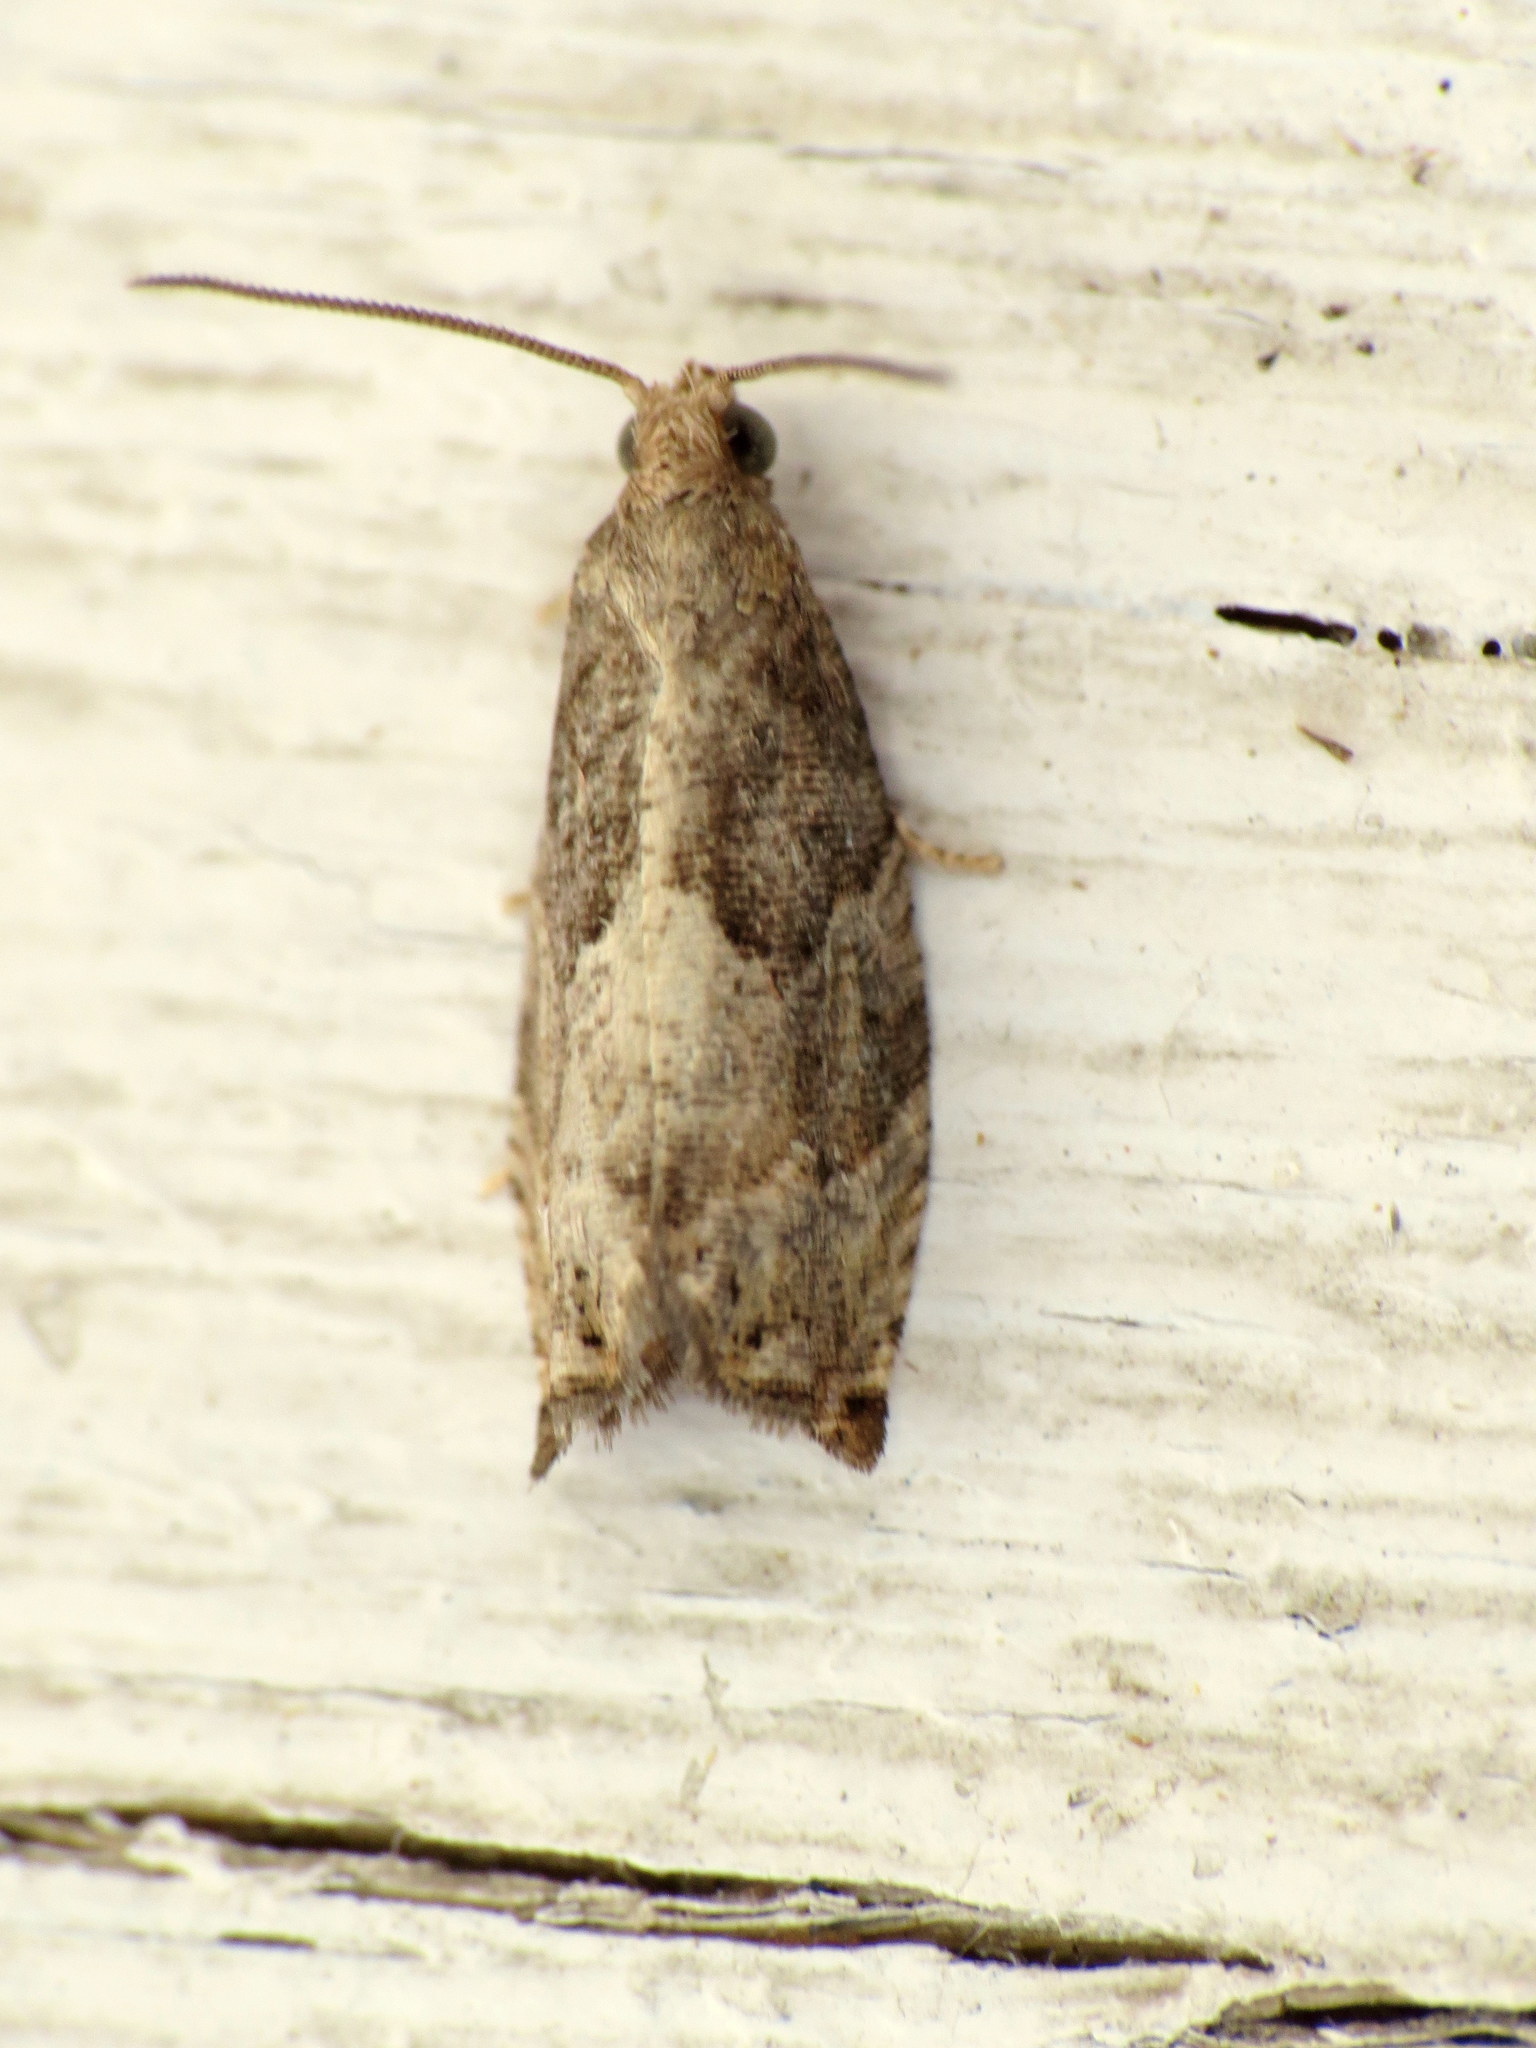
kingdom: Animalia
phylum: Arthropoda
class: Insecta
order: Lepidoptera
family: Tortricidae
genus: Gypsonoma
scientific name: Gypsonoma salicicolana
